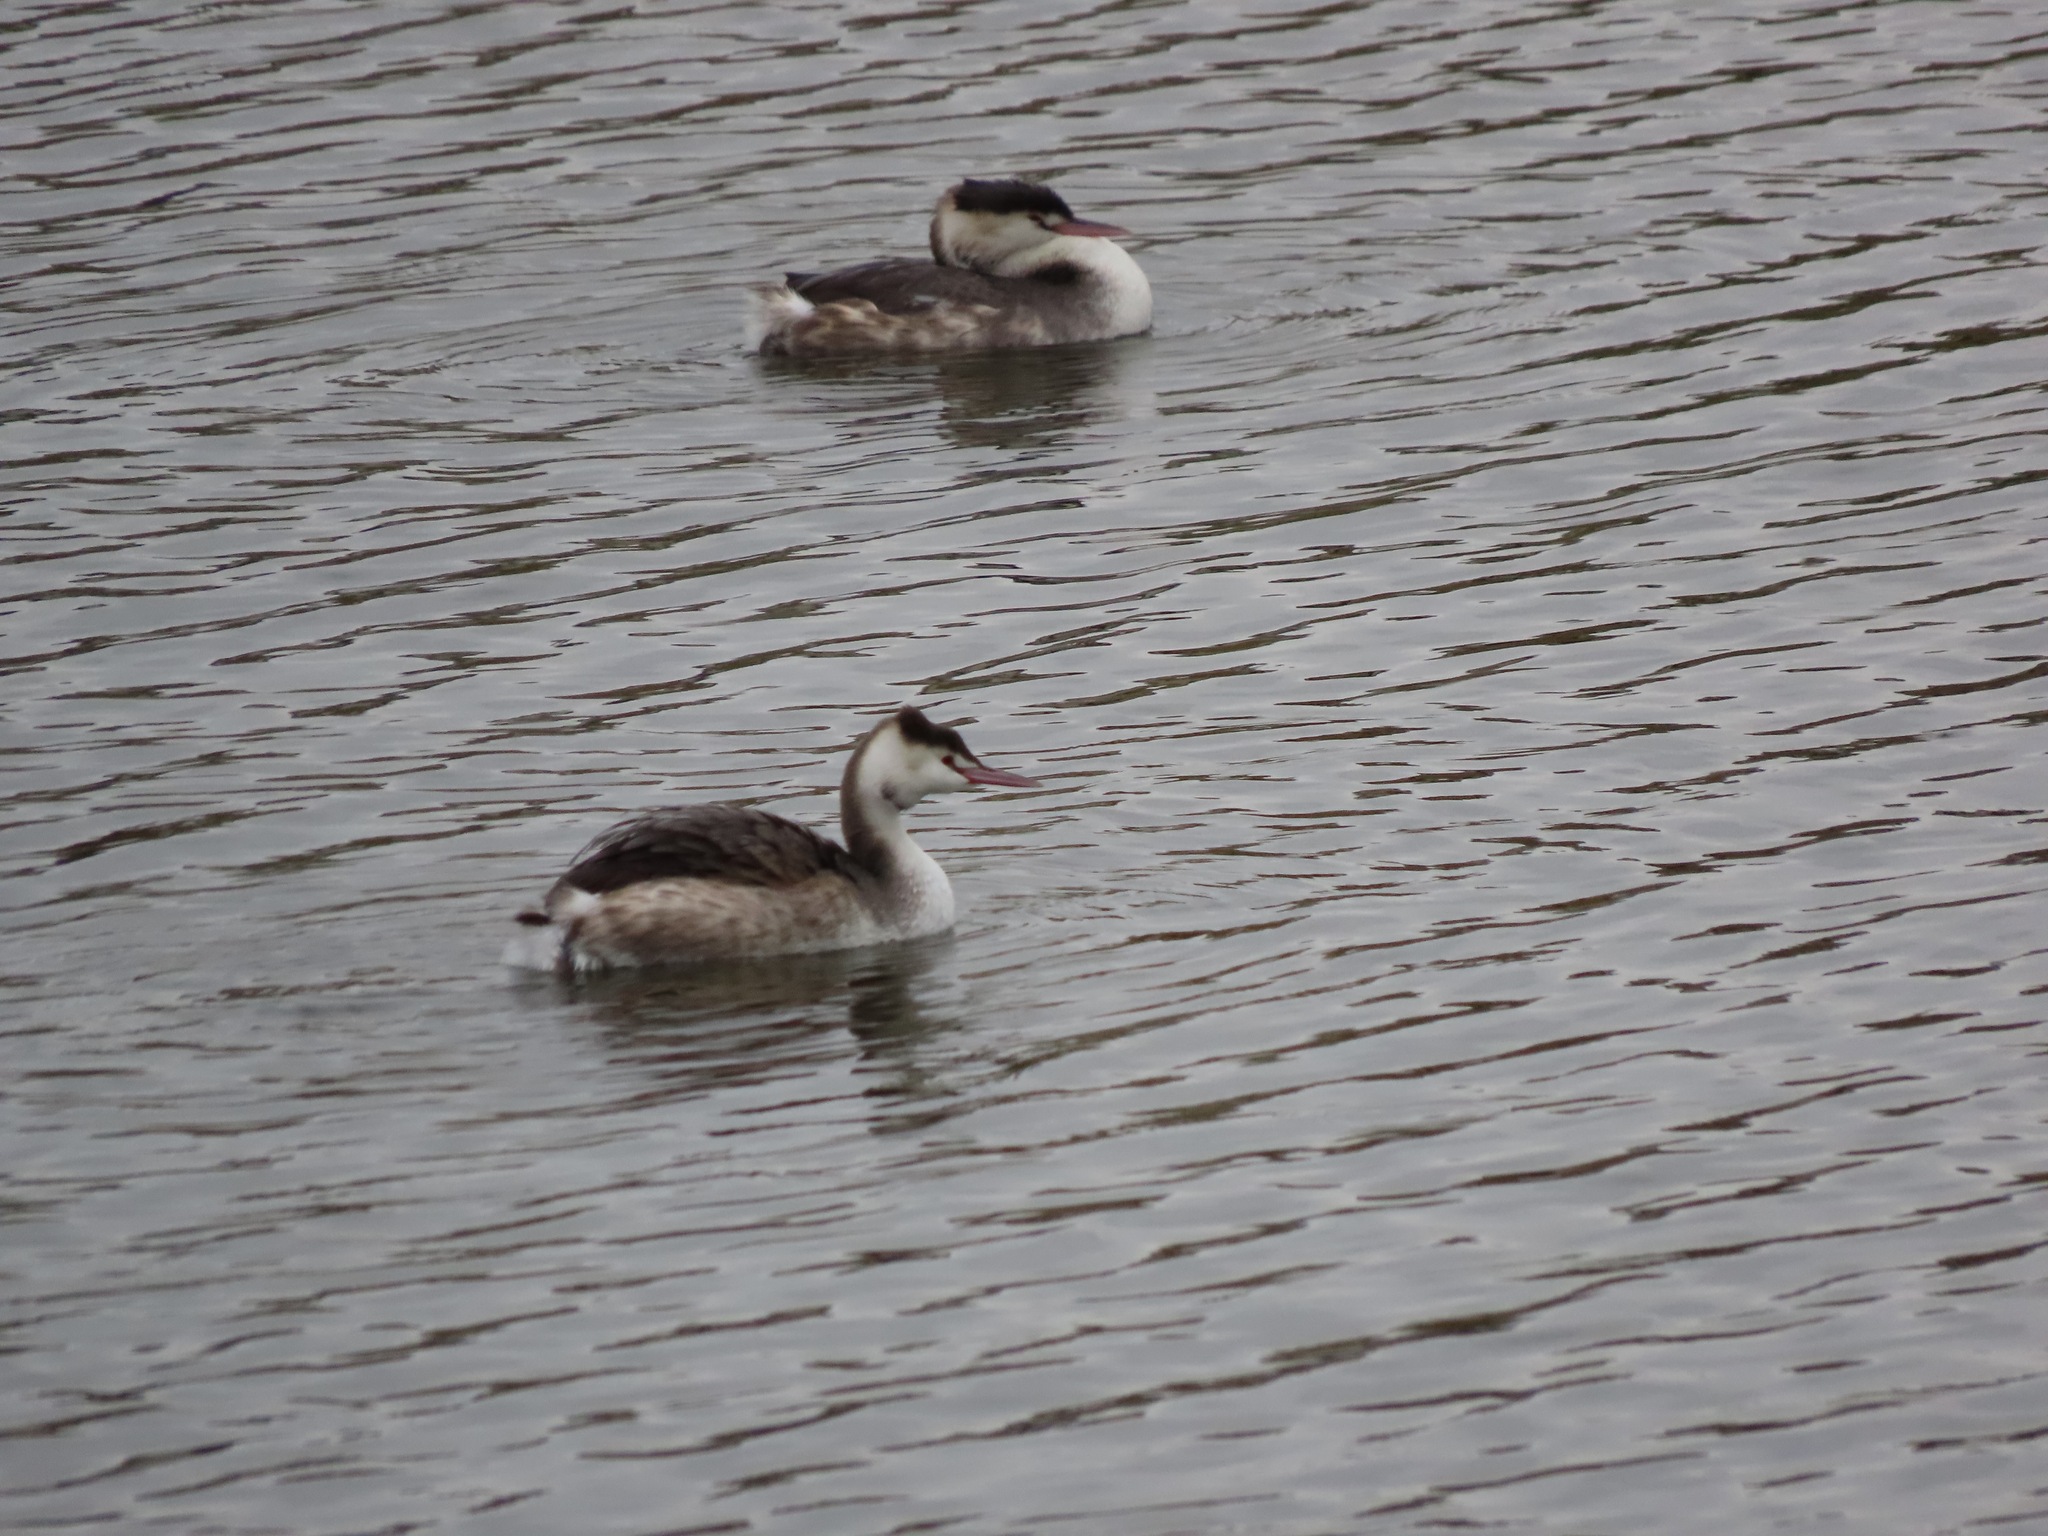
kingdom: Animalia
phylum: Chordata
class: Aves
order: Podicipediformes
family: Podicipedidae
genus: Podiceps
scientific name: Podiceps cristatus
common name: Great crested grebe
